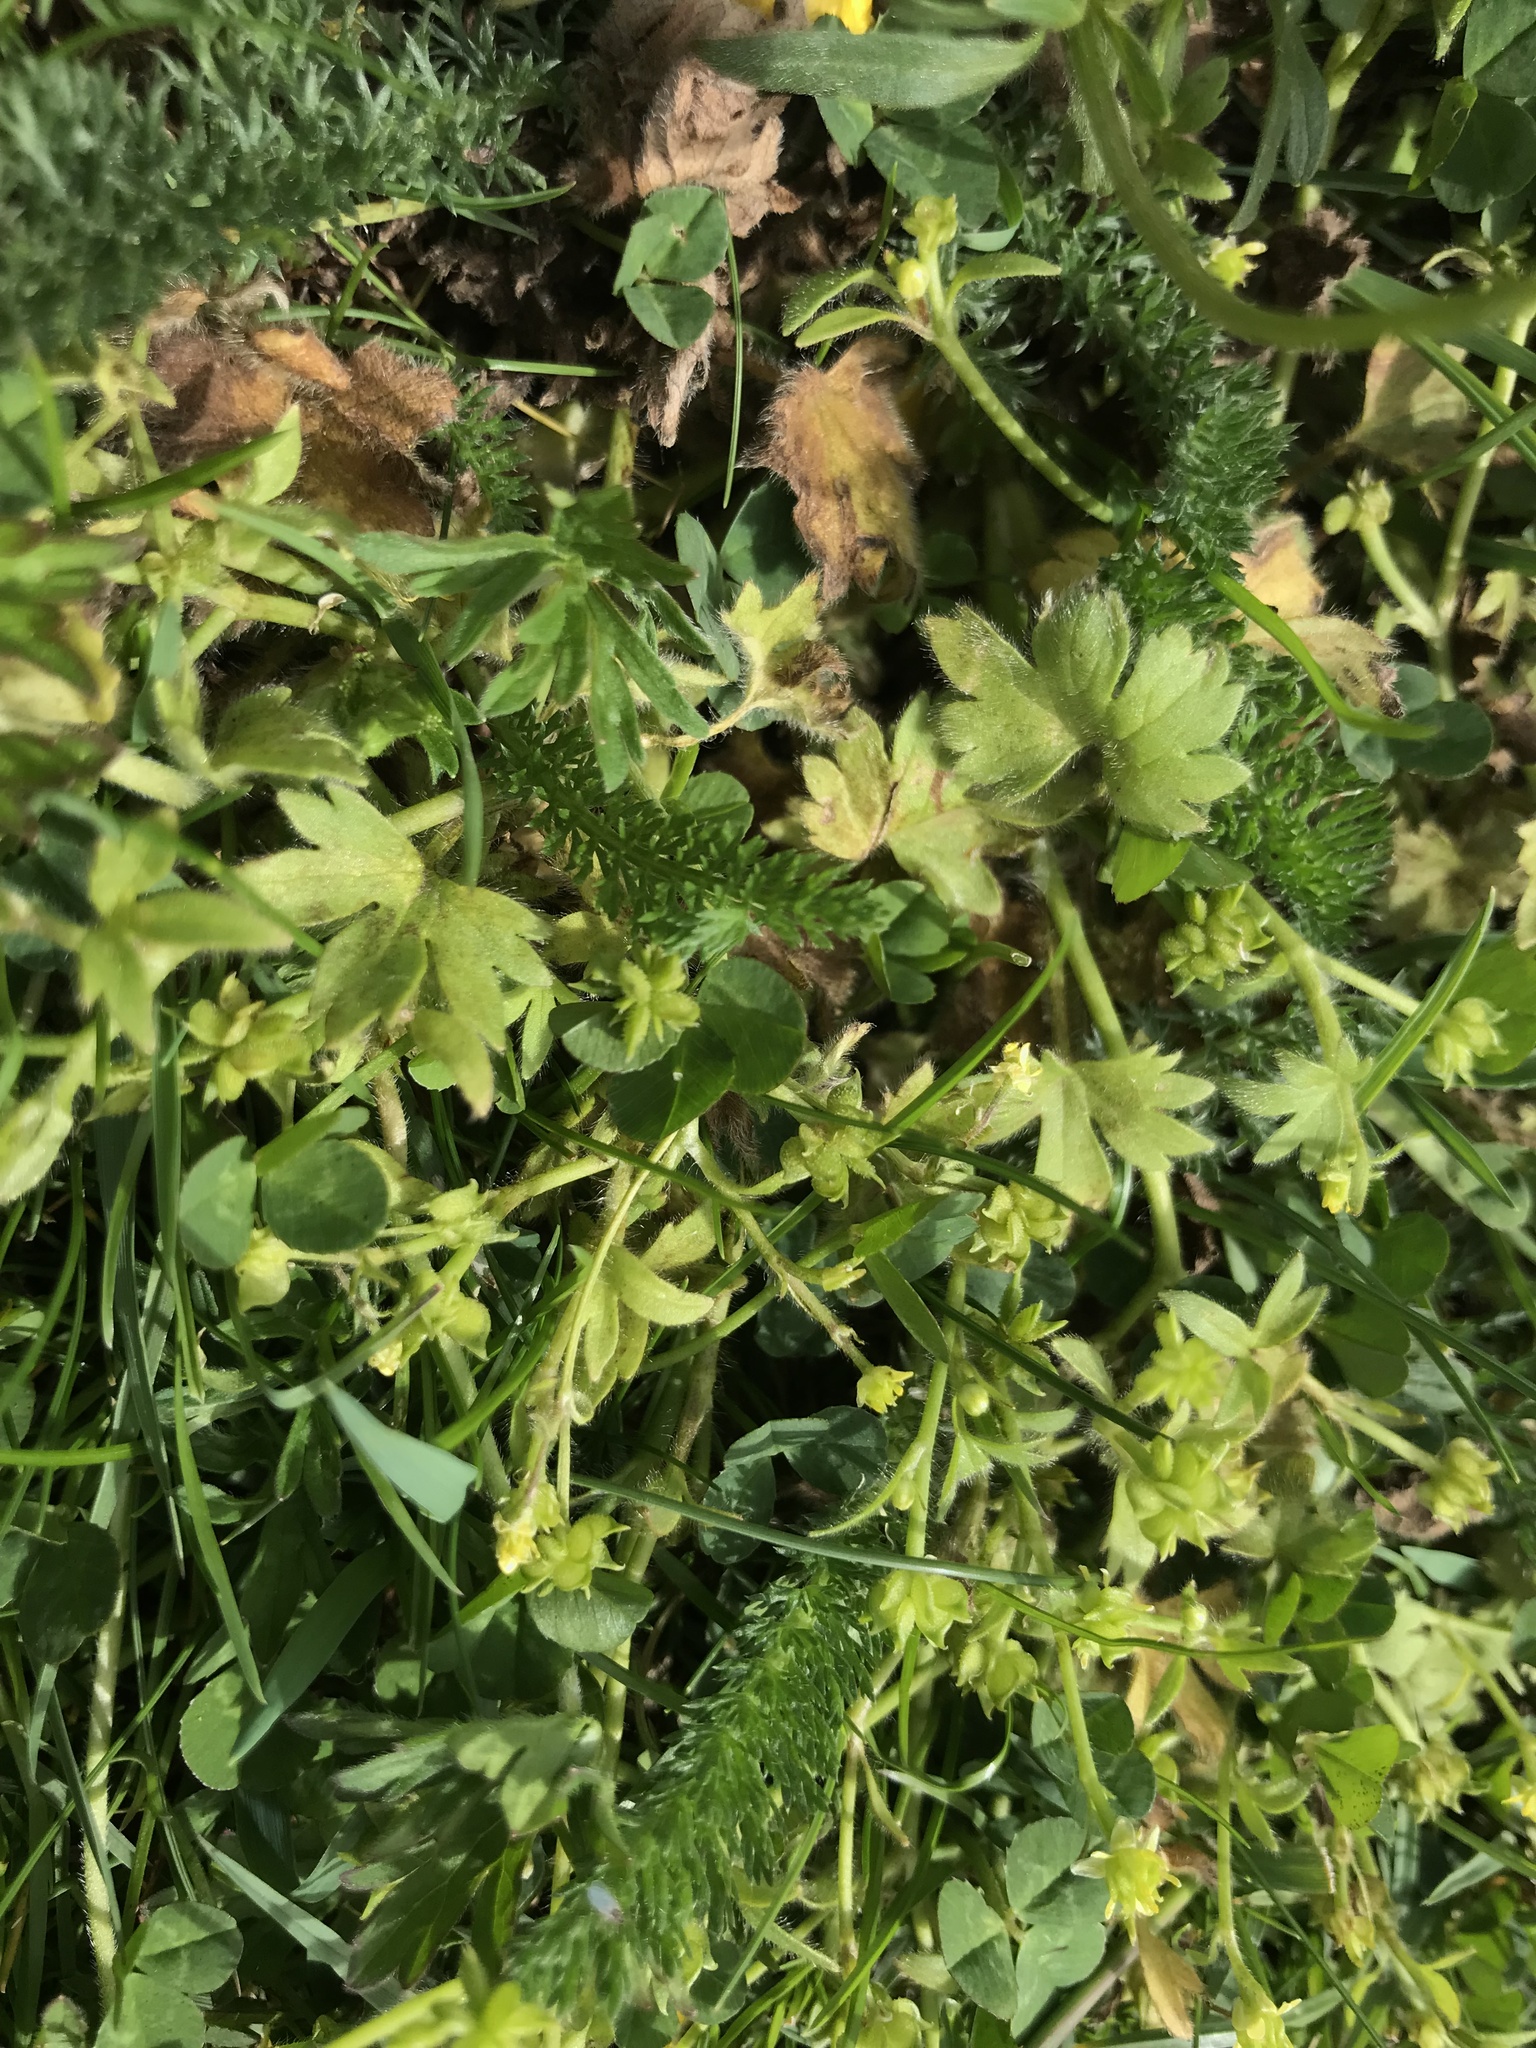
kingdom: Plantae
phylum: Tracheophyta
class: Magnoliopsida
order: Ranunculales
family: Ranunculaceae
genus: Ranunculus
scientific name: Ranunculus parviflorus
